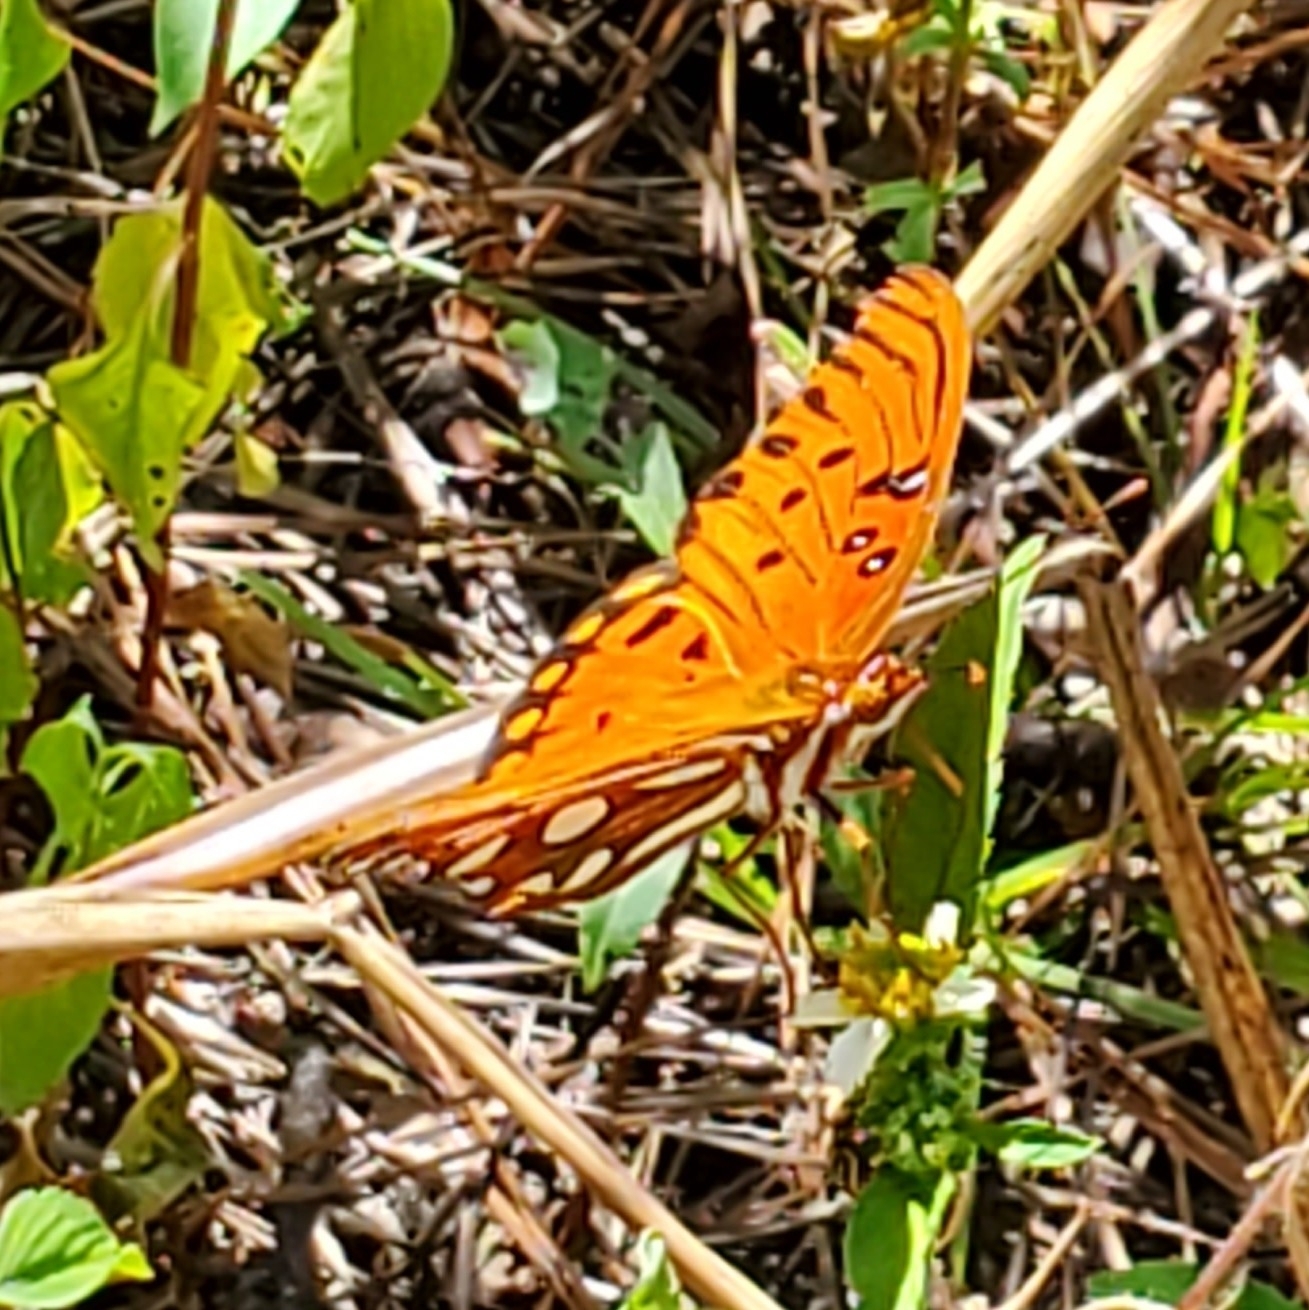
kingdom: Animalia
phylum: Arthropoda
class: Insecta
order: Lepidoptera
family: Nymphalidae
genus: Dione
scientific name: Dione vanillae
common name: Gulf fritillary
